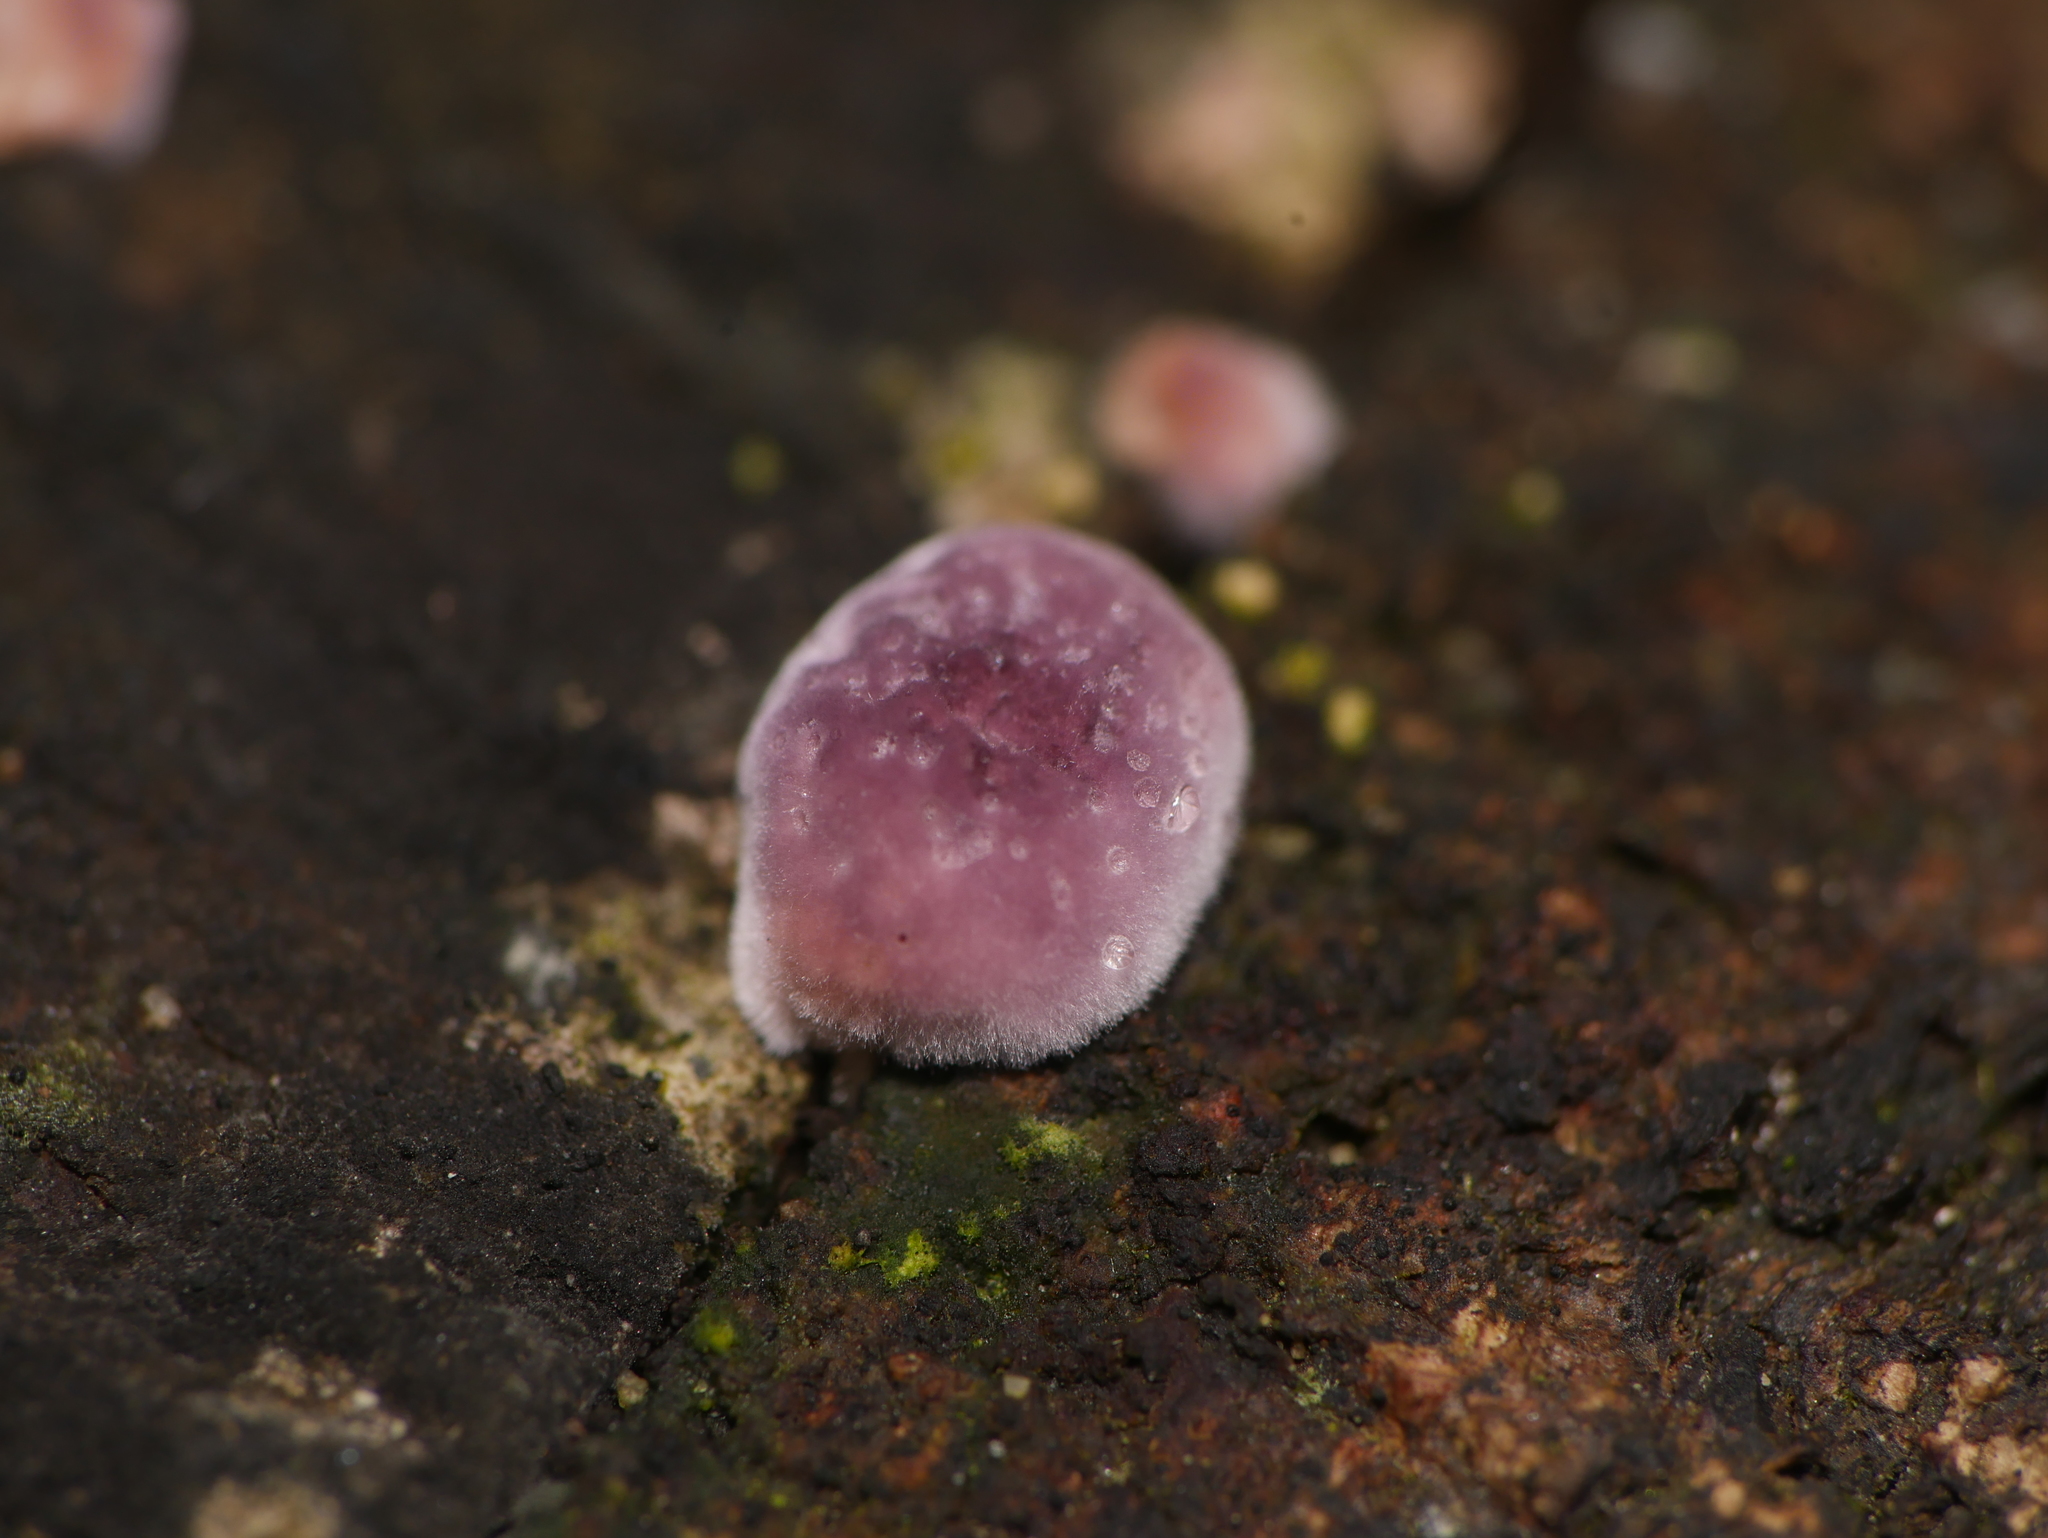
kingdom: Fungi
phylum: Basidiomycota
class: Agaricomycetes
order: Agaricales
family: Cyphellaceae
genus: Chondrostereum
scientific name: Chondrostereum purpureum
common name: Silver leaf disease
